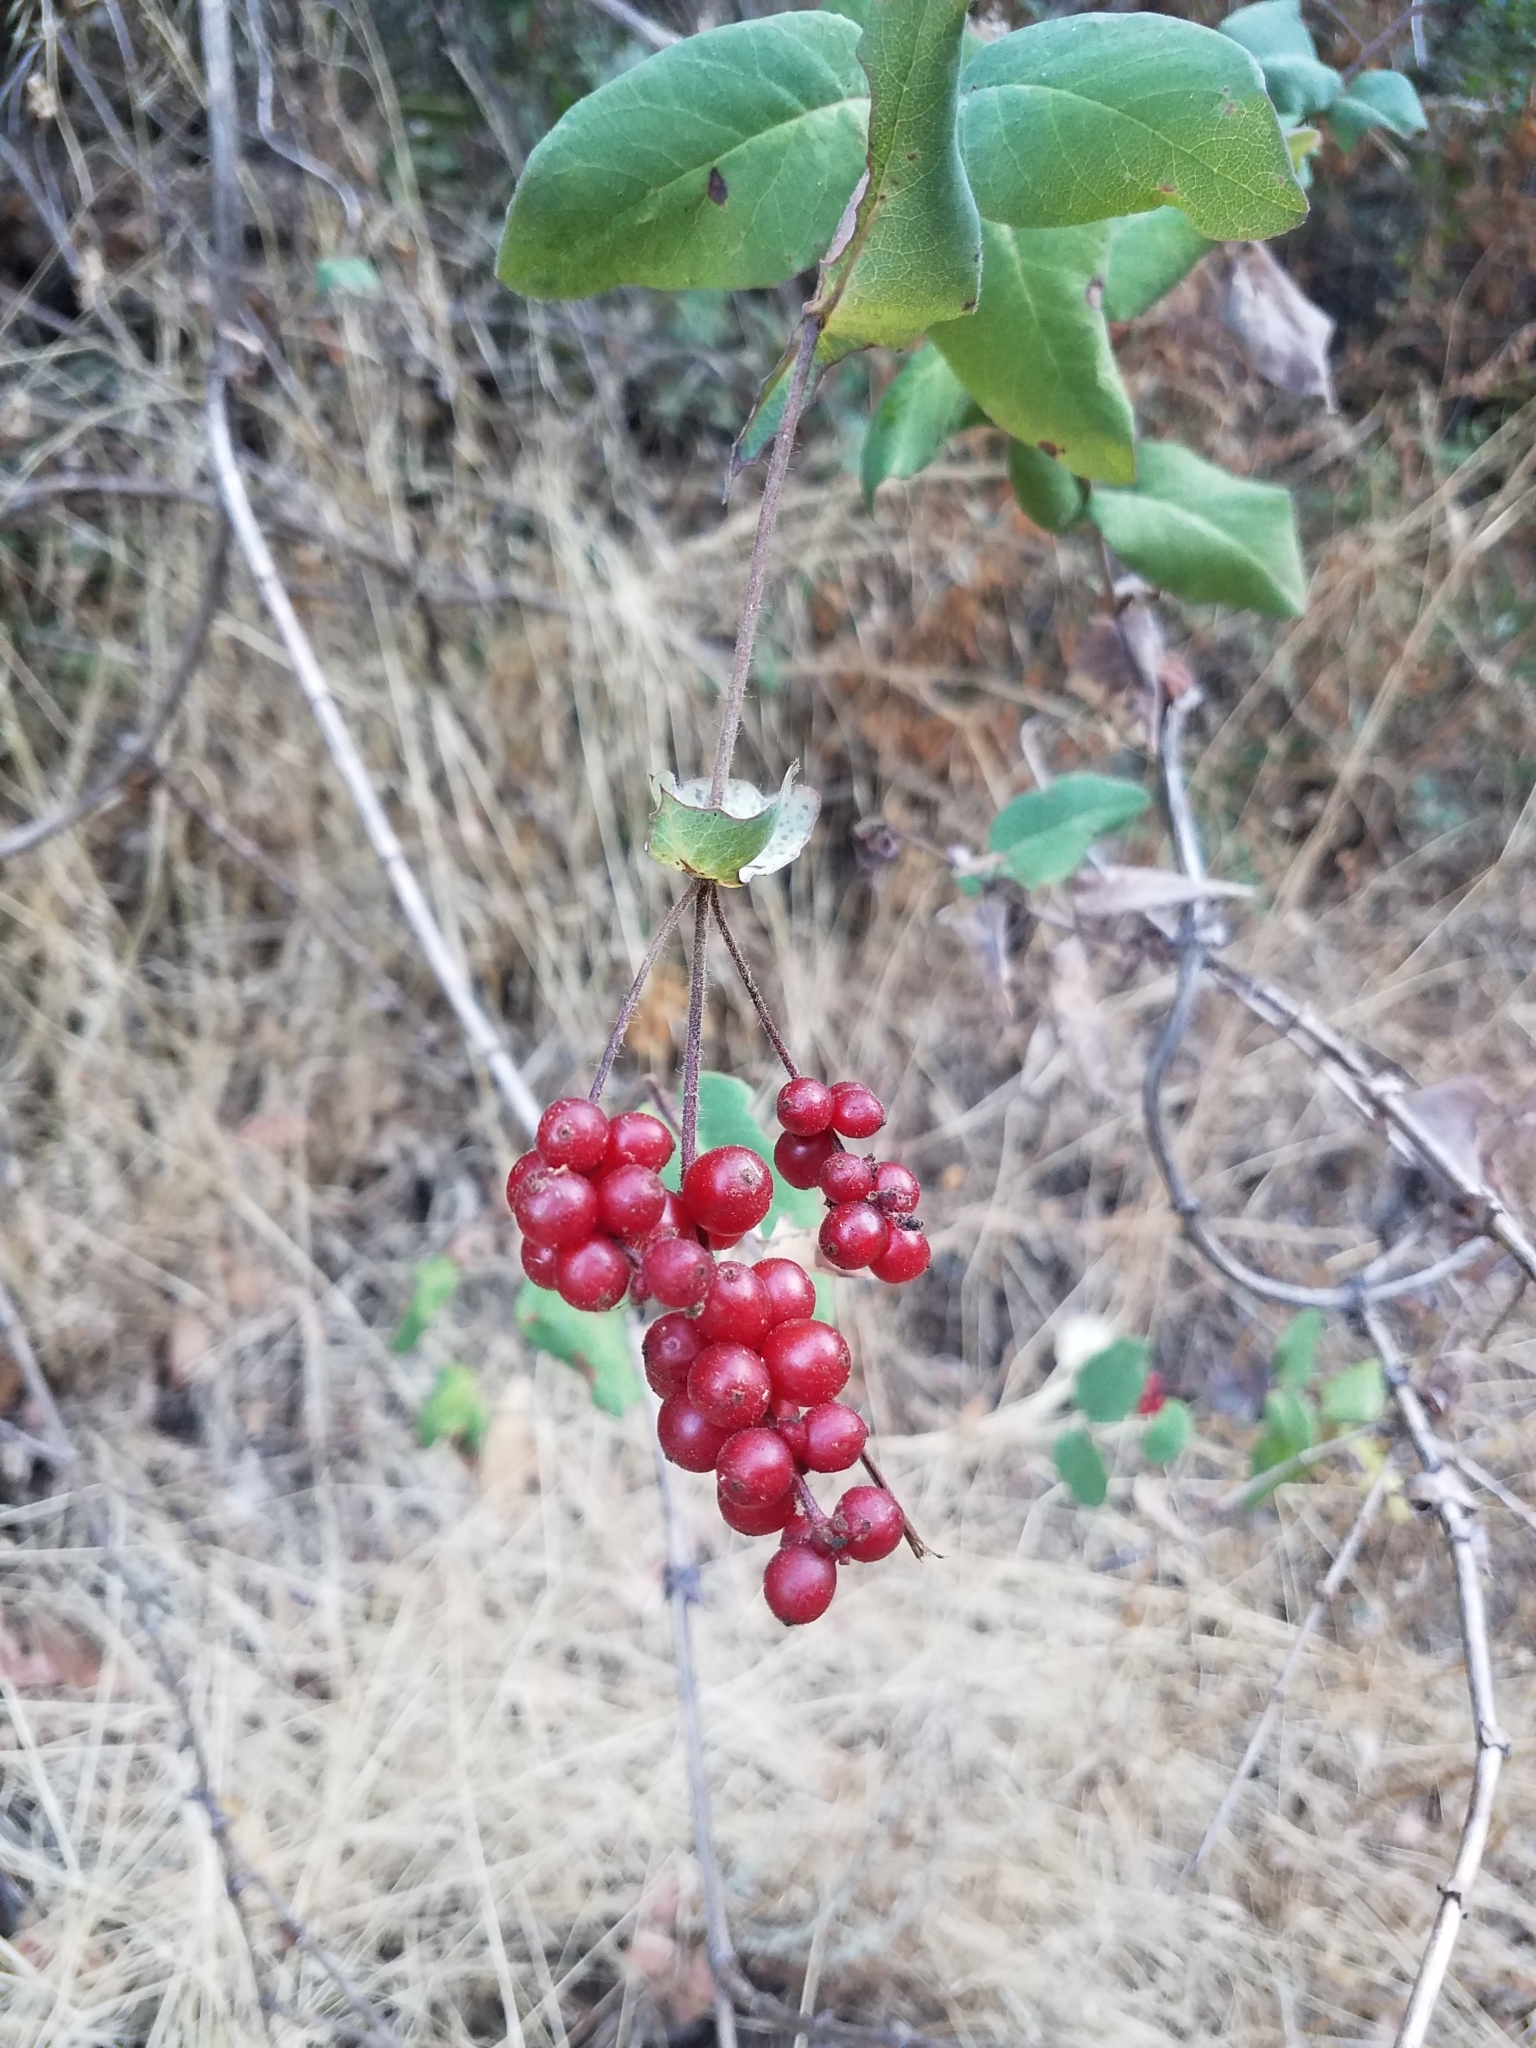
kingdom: Plantae
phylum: Tracheophyta
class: Magnoliopsida
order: Dipsacales
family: Caprifoliaceae
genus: Lonicera
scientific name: Lonicera hispidula
